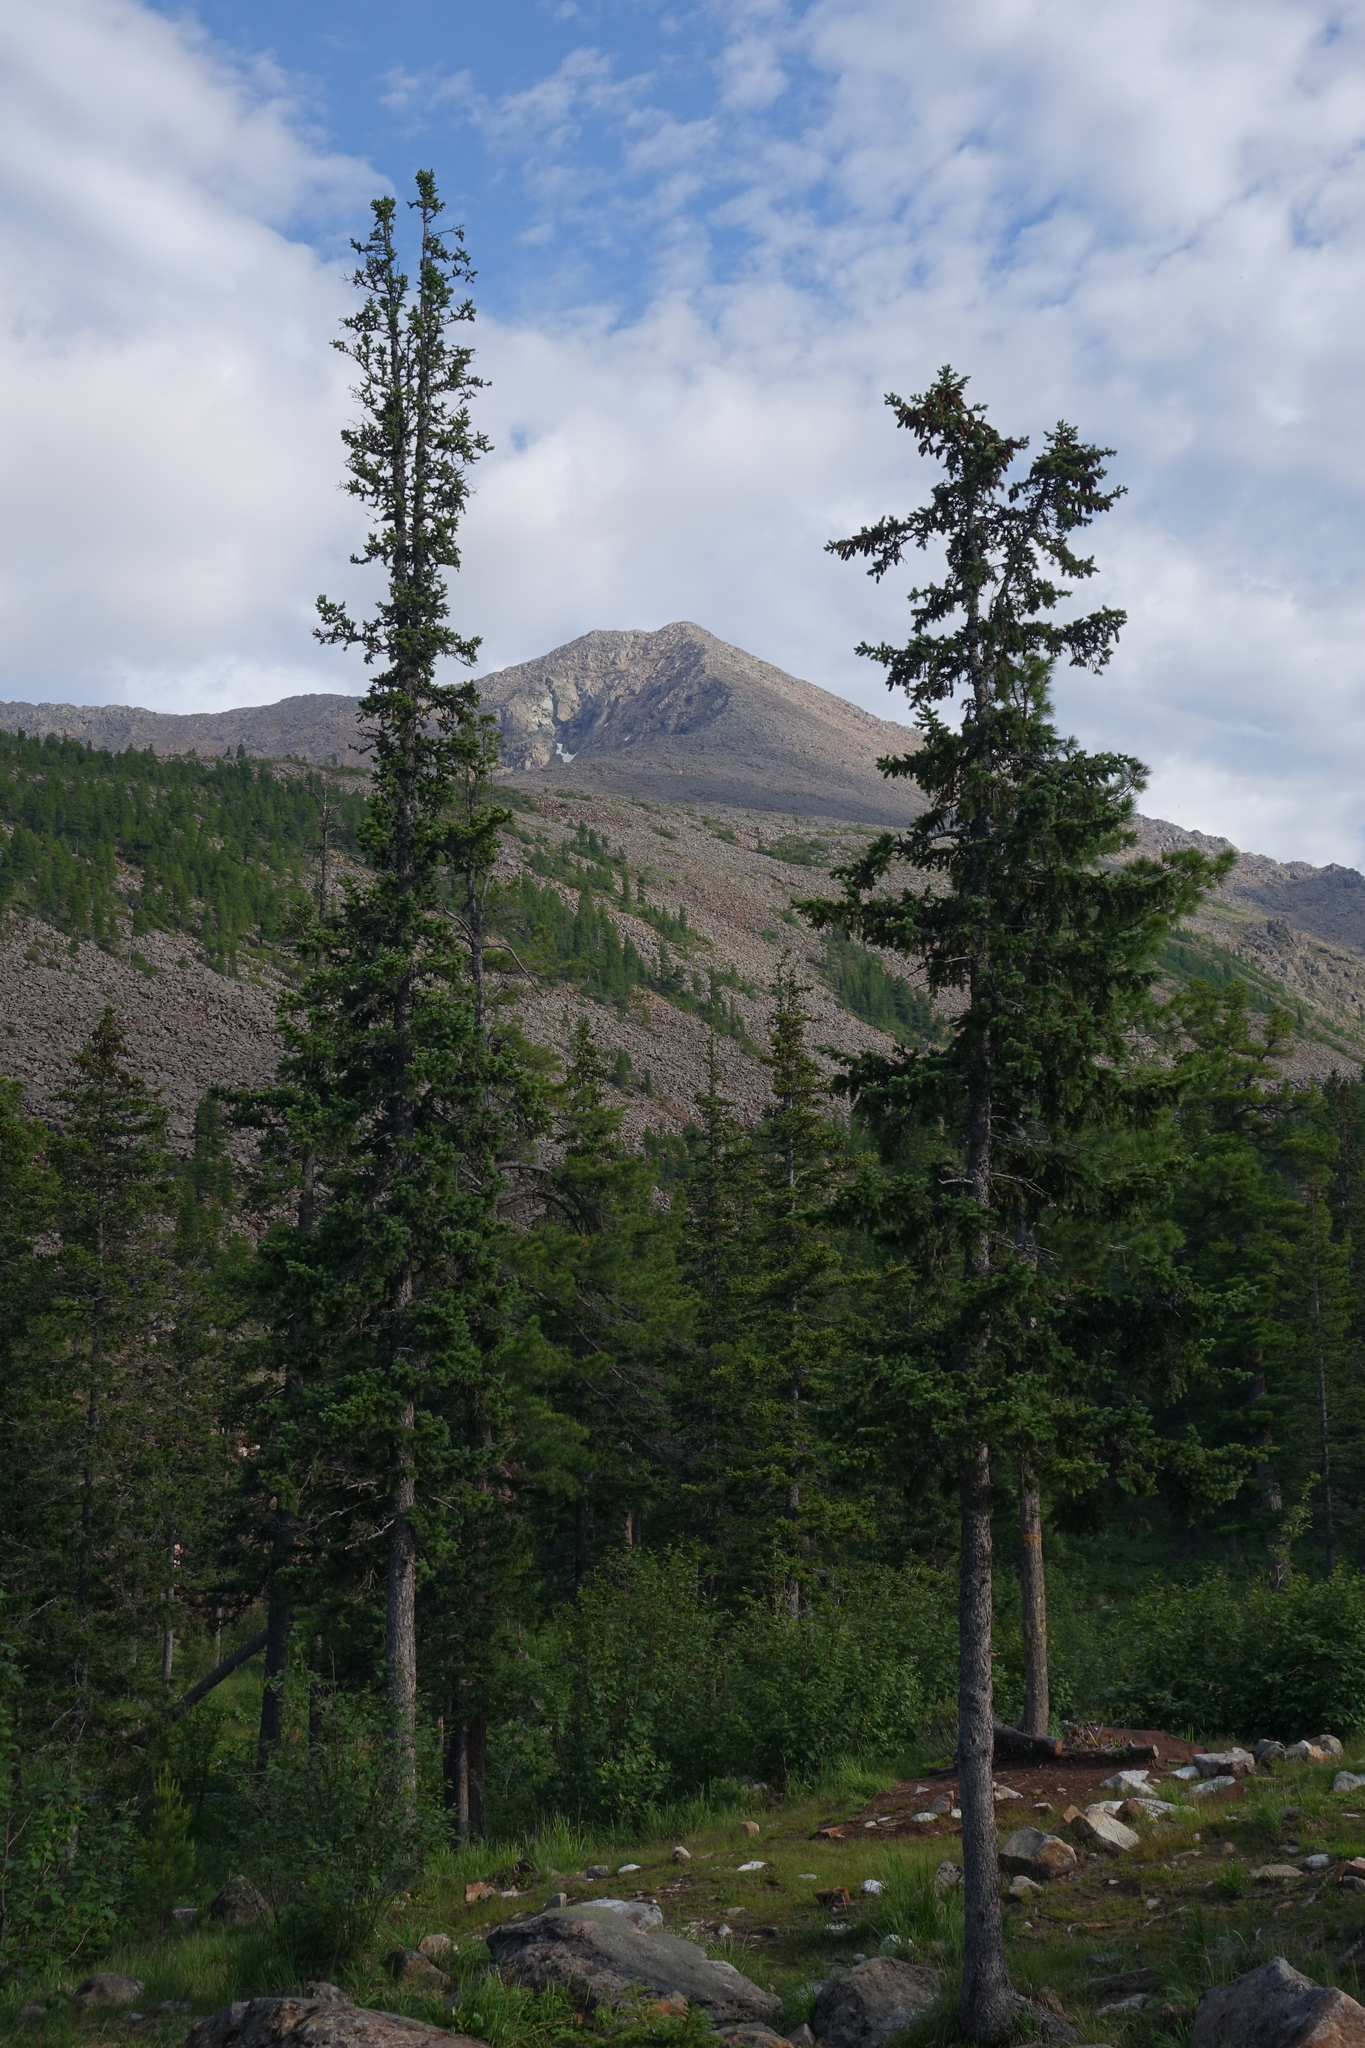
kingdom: Plantae
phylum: Tracheophyta
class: Pinopsida
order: Pinales
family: Pinaceae
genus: Picea
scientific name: Picea obovata
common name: Siberian spruce
